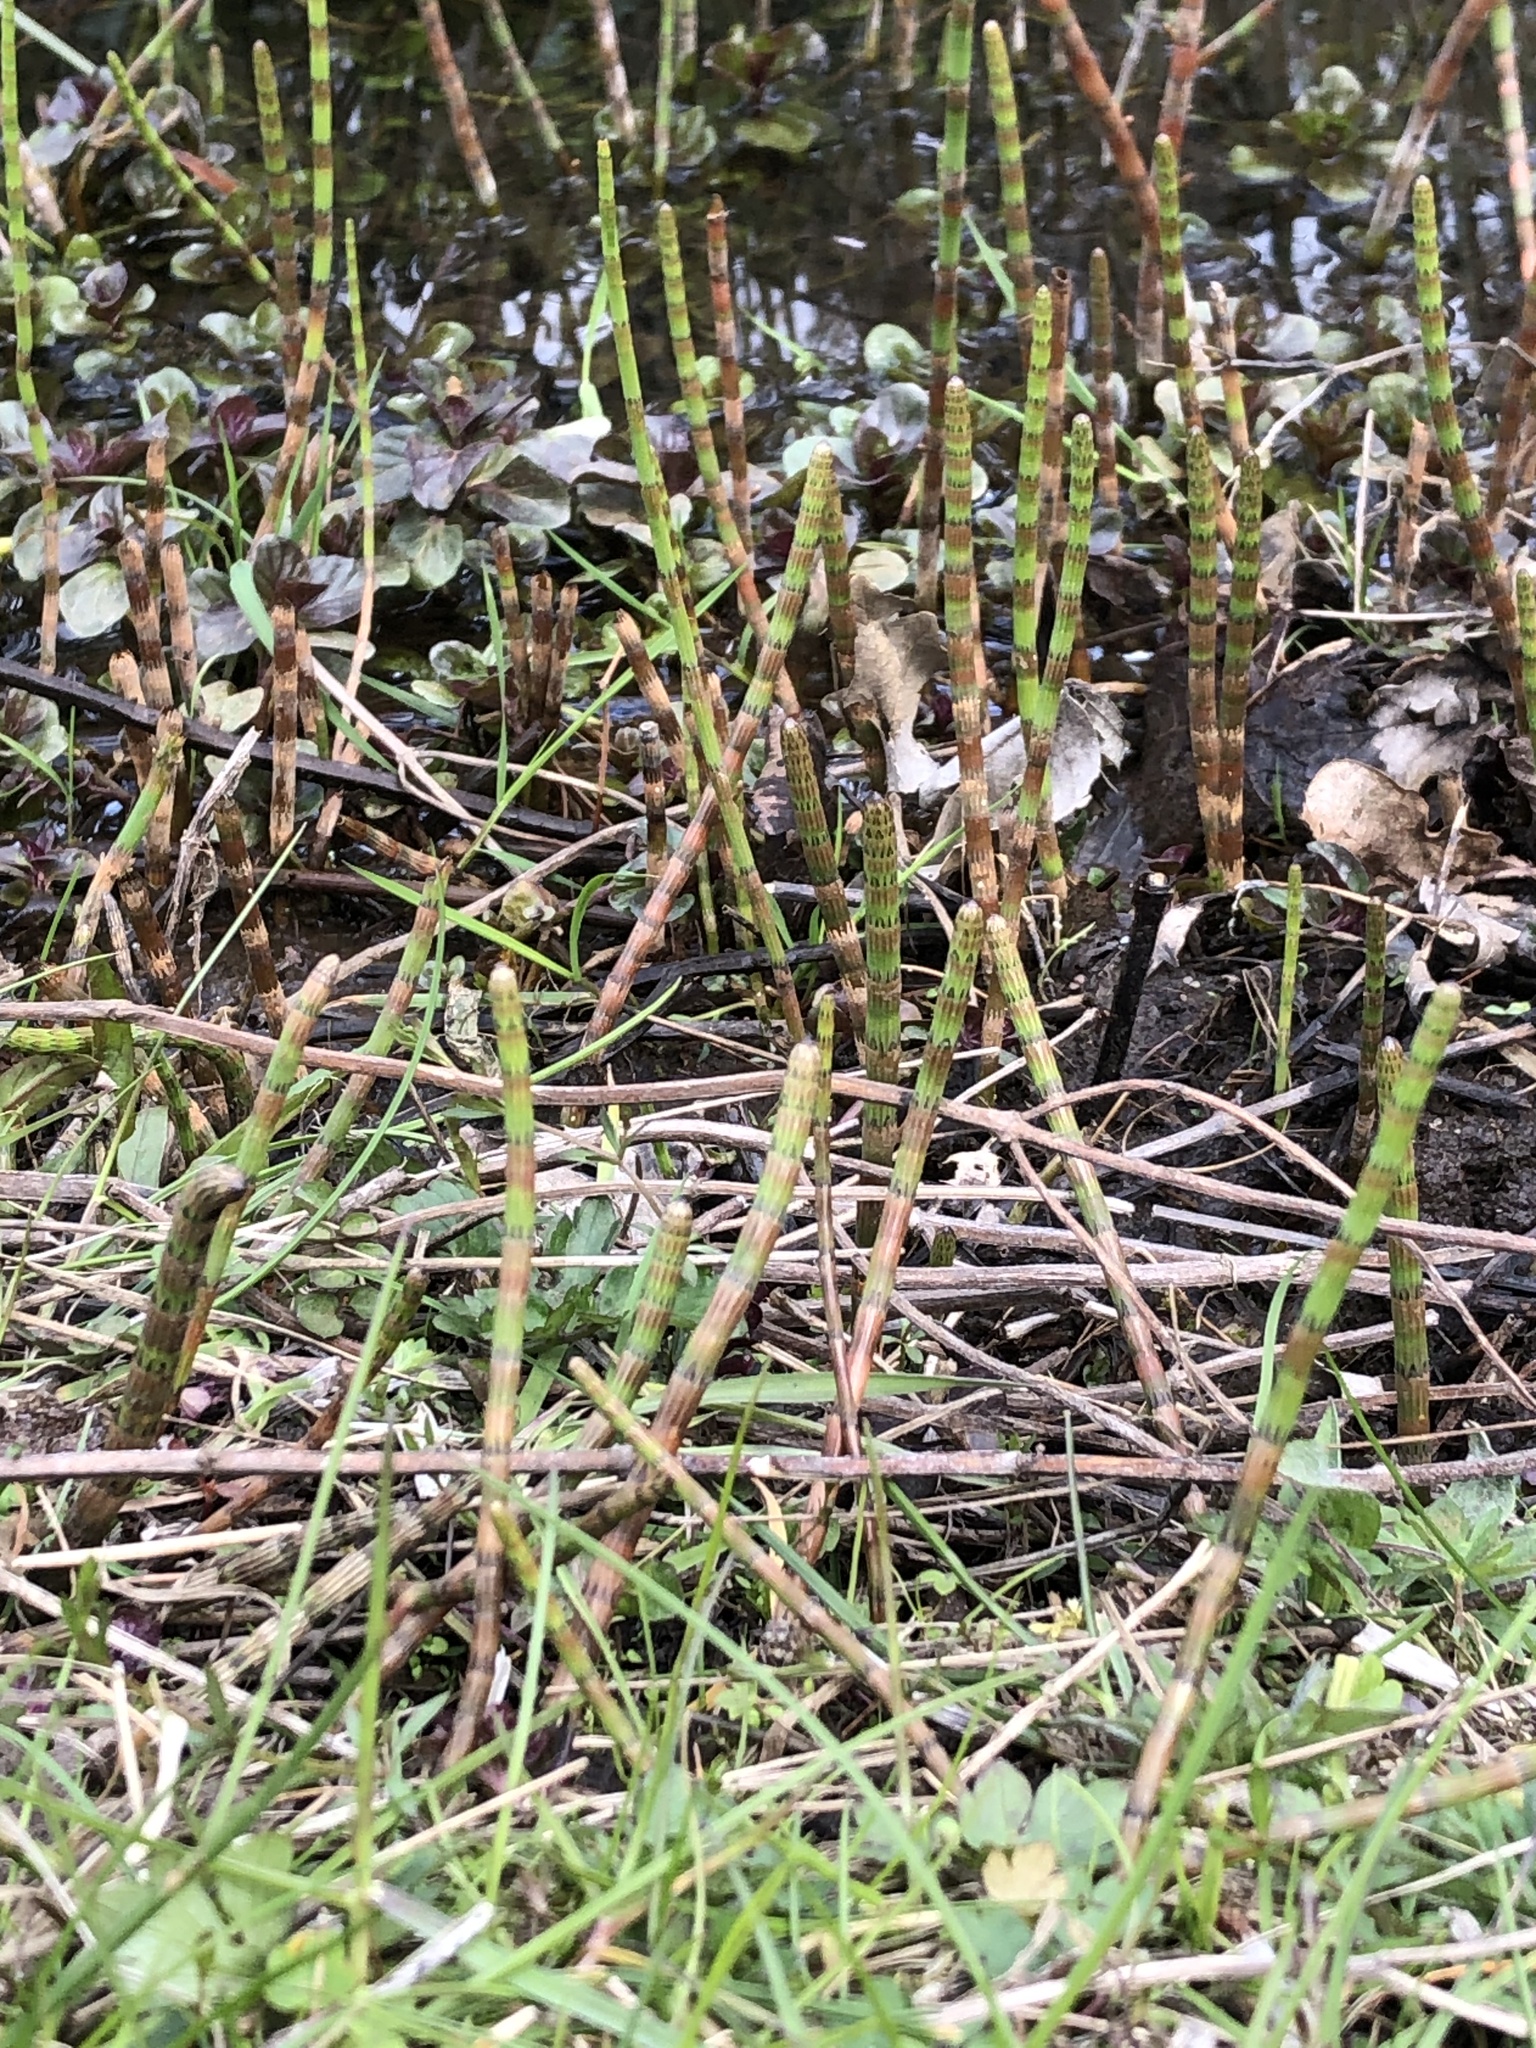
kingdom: Plantae
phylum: Tracheophyta
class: Polypodiopsida
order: Equisetales
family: Equisetaceae
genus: Equisetum
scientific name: Equisetum fluviatile
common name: Water horsetail
